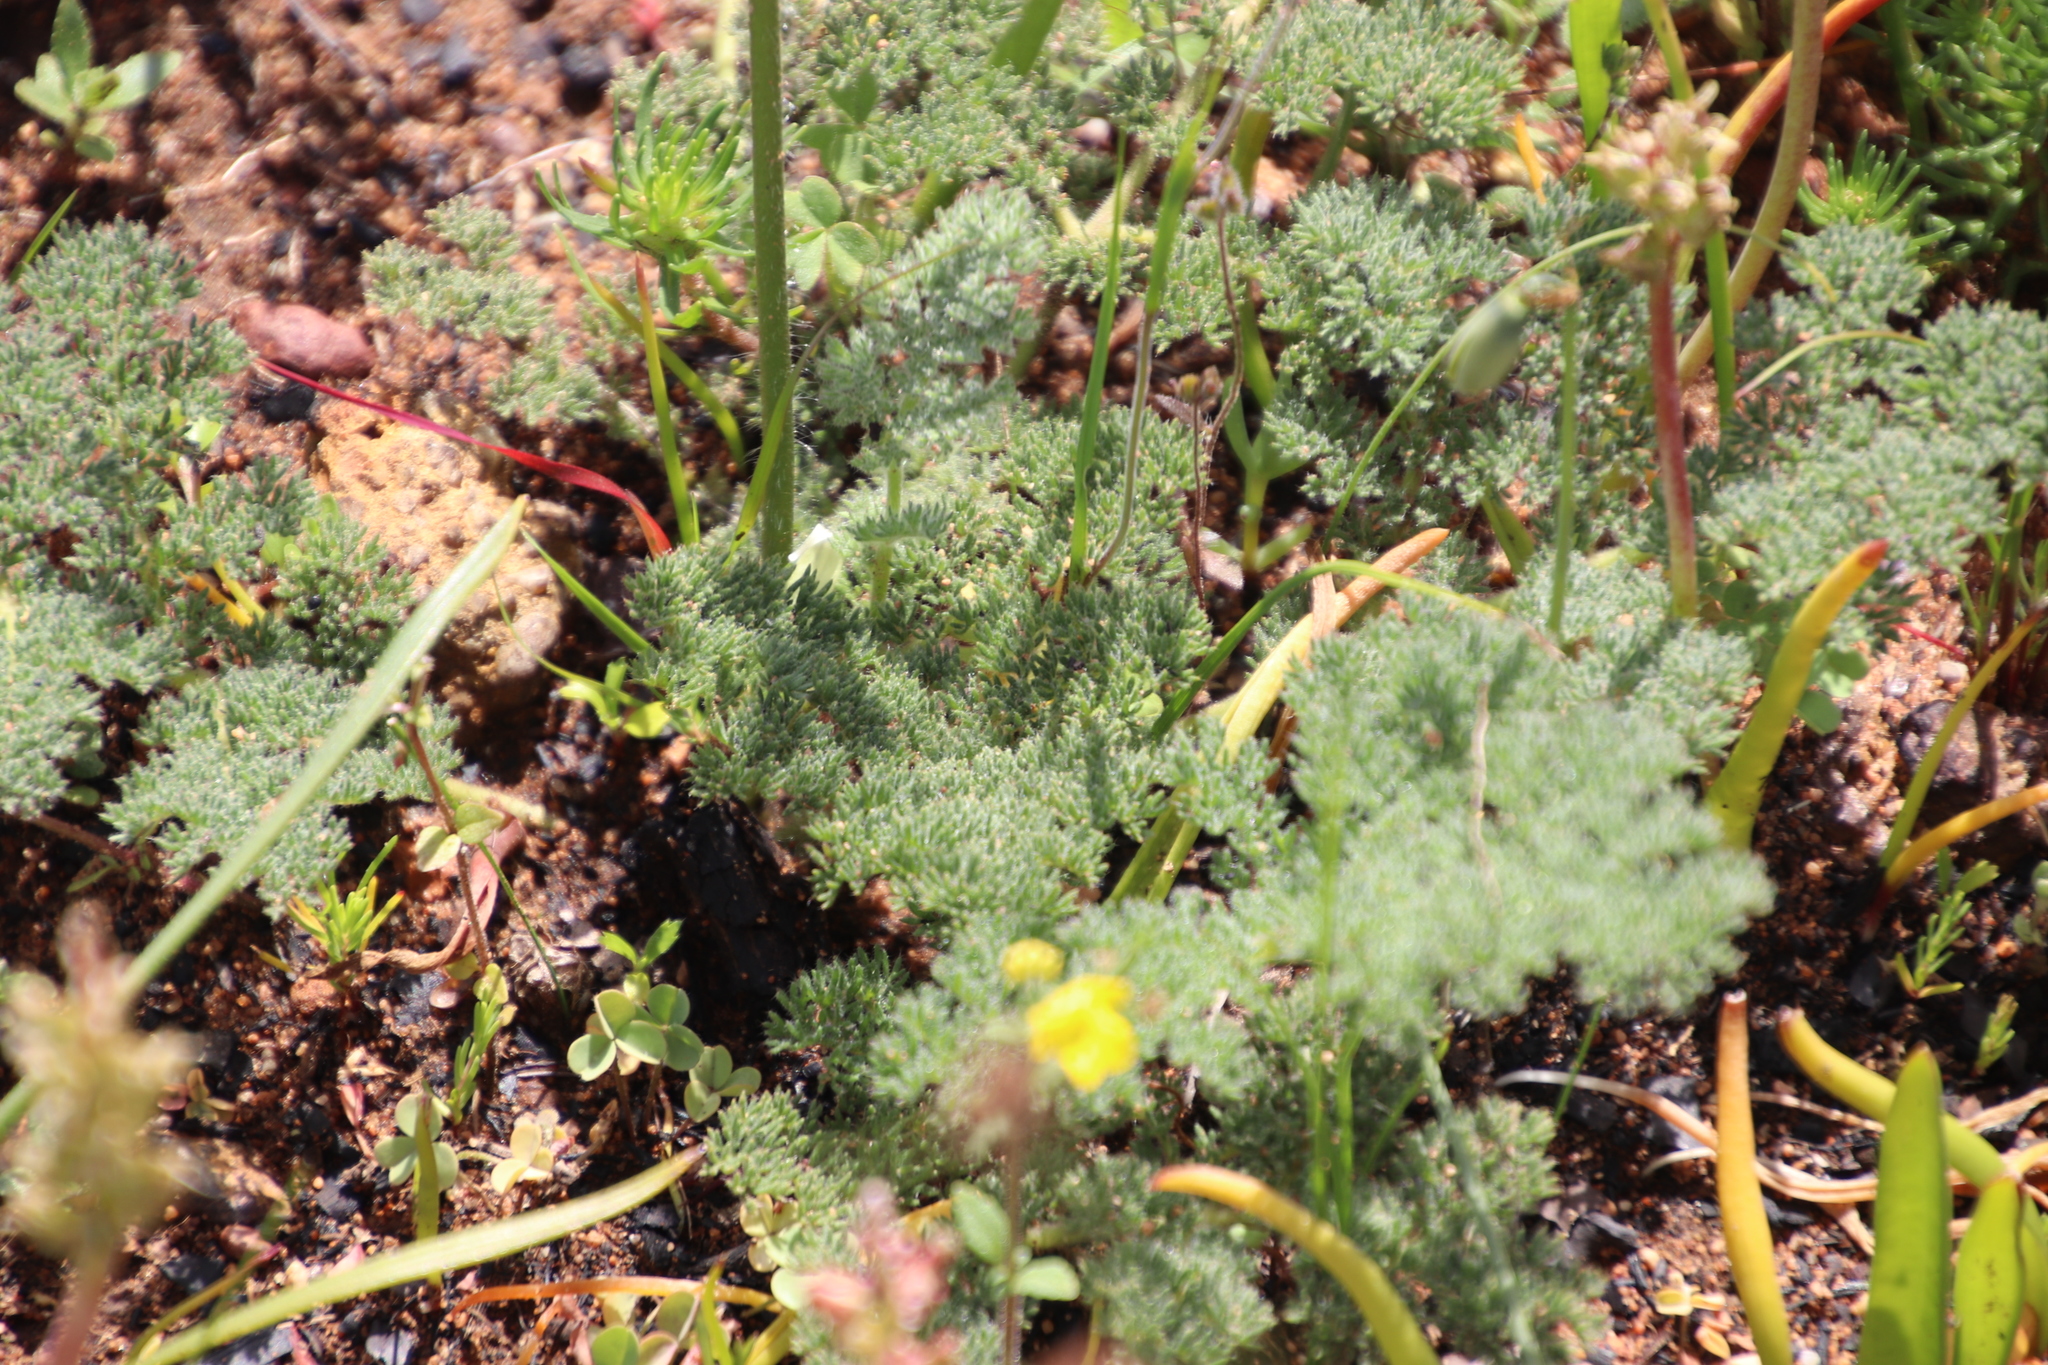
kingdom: Plantae
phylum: Tracheophyta
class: Magnoliopsida
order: Geraniales
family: Geraniaceae
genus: Pelargonium
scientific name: Pelargonium triste
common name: Night-scent pelargonium
